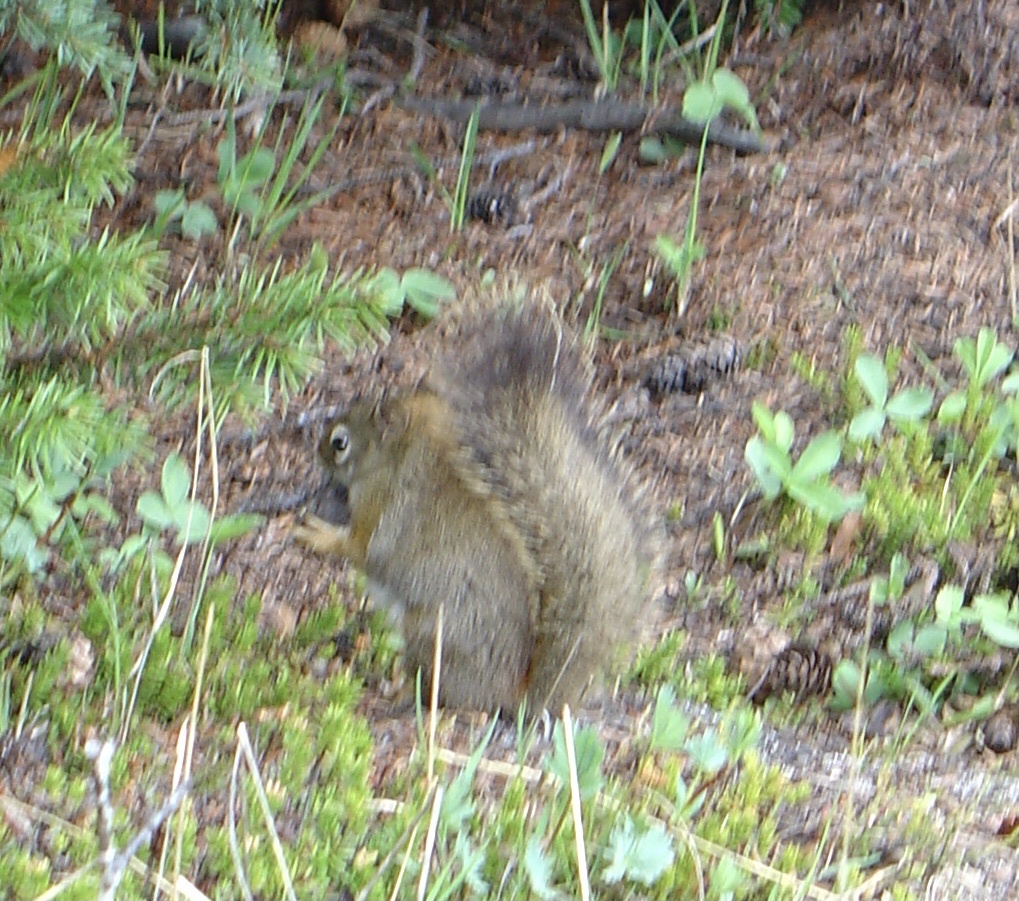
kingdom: Animalia
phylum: Chordata
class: Mammalia
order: Rodentia
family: Sciuridae
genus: Tamiasciurus
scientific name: Tamiasciurus hudsonicus
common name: Red squirrel
